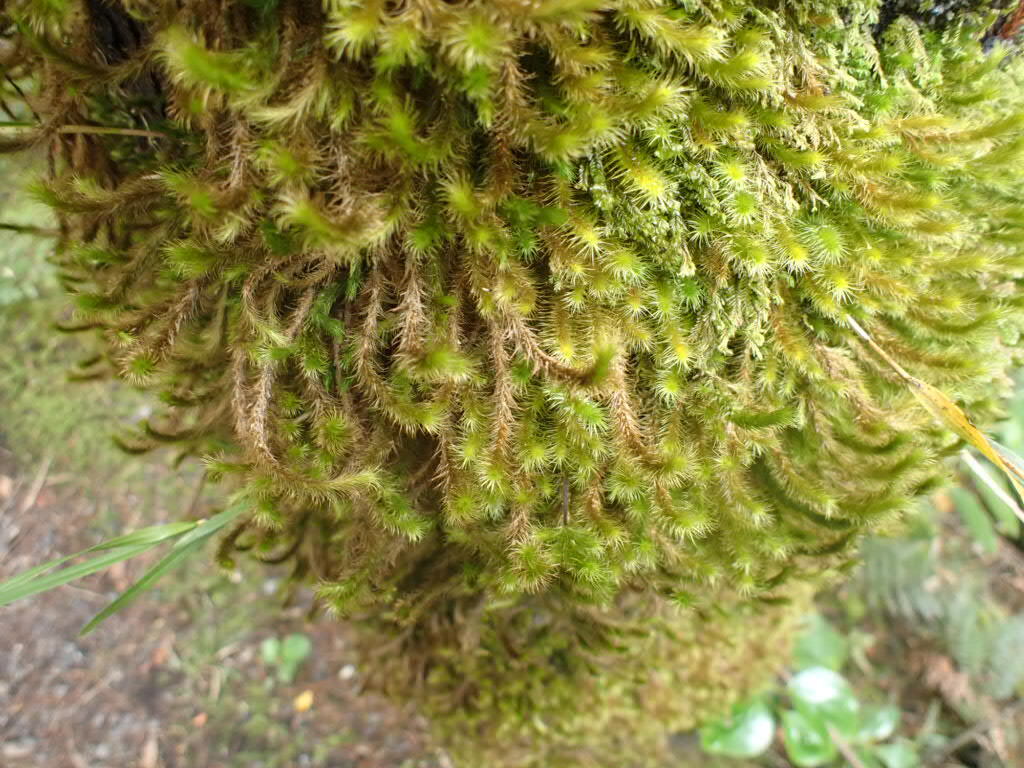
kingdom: Plantae
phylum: Bryophyta
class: Bryopsida
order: Hypnodendrales
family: Spiridentaceae
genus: Cyrtopus
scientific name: Cyrtopus setosus
